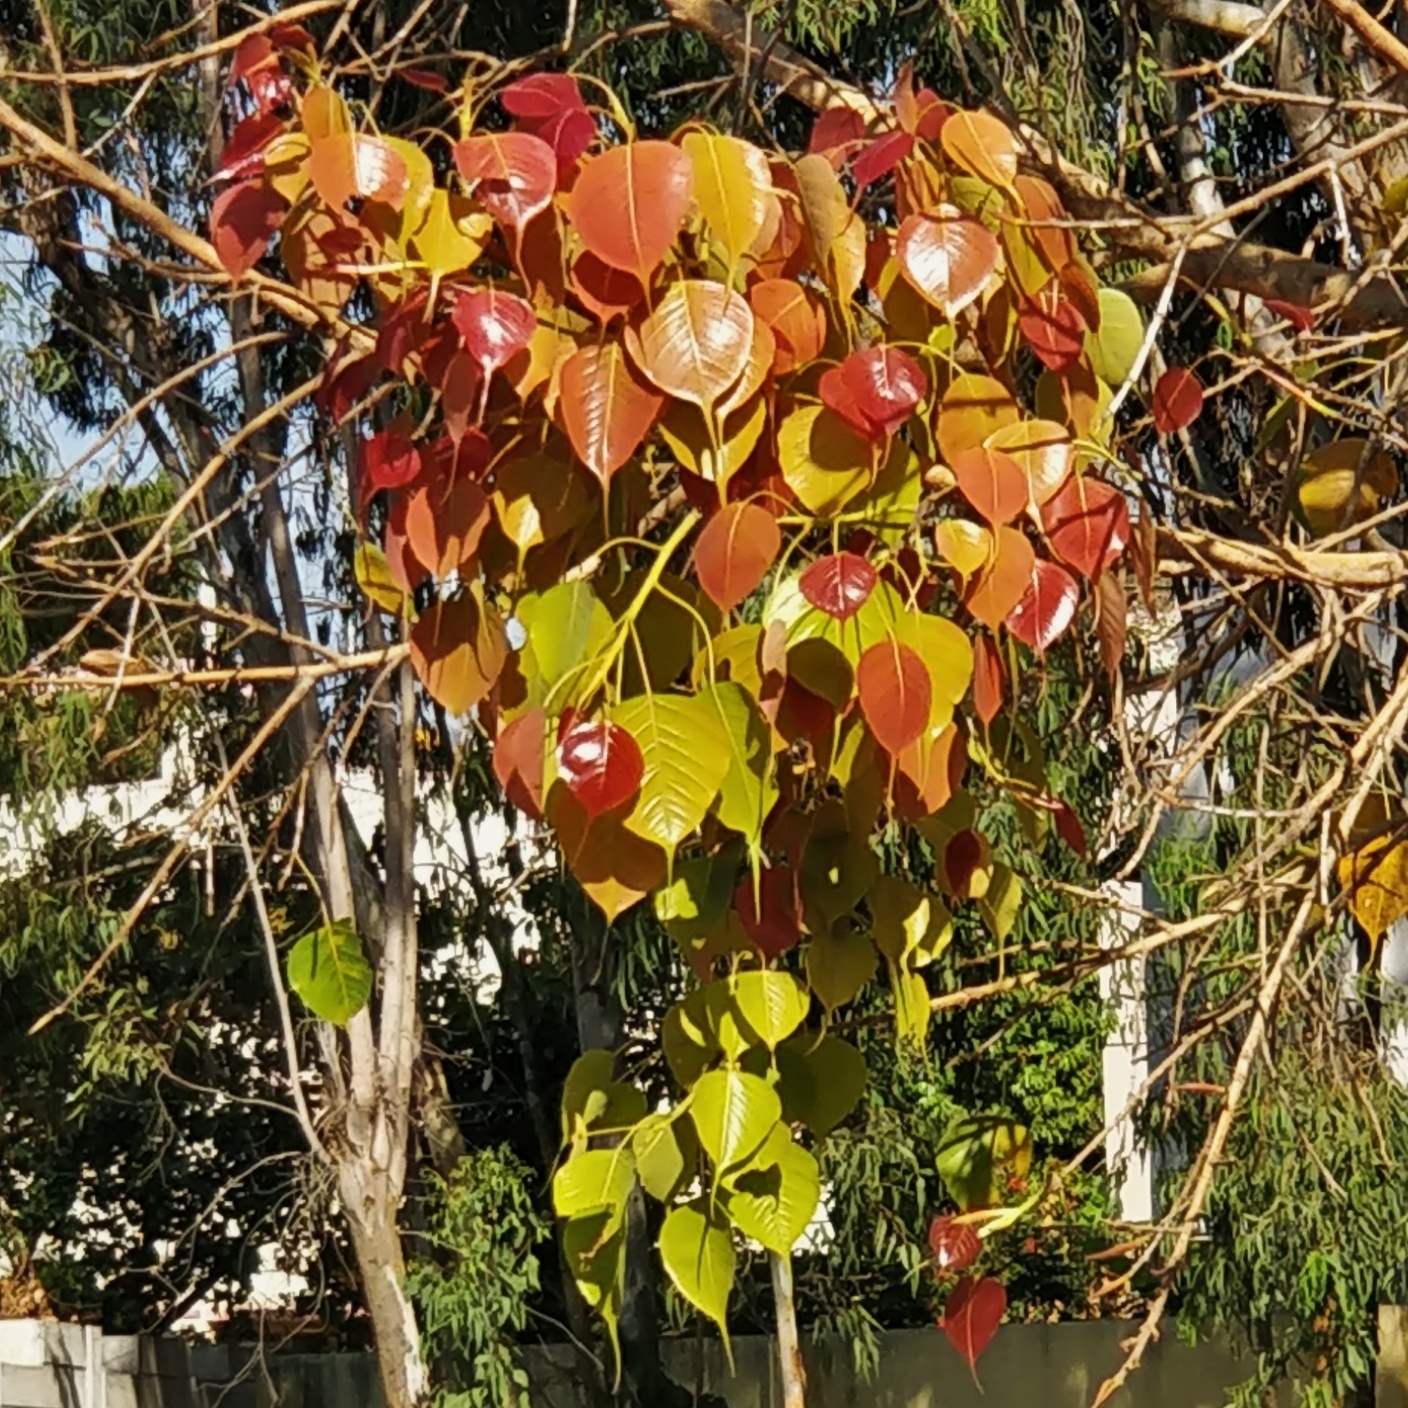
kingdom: Plantae
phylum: Tracheophyta
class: Magnoliopsida
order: Rosales
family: Moraceae
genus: Ficus
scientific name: Ficus religiosa
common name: Bodhi tree
